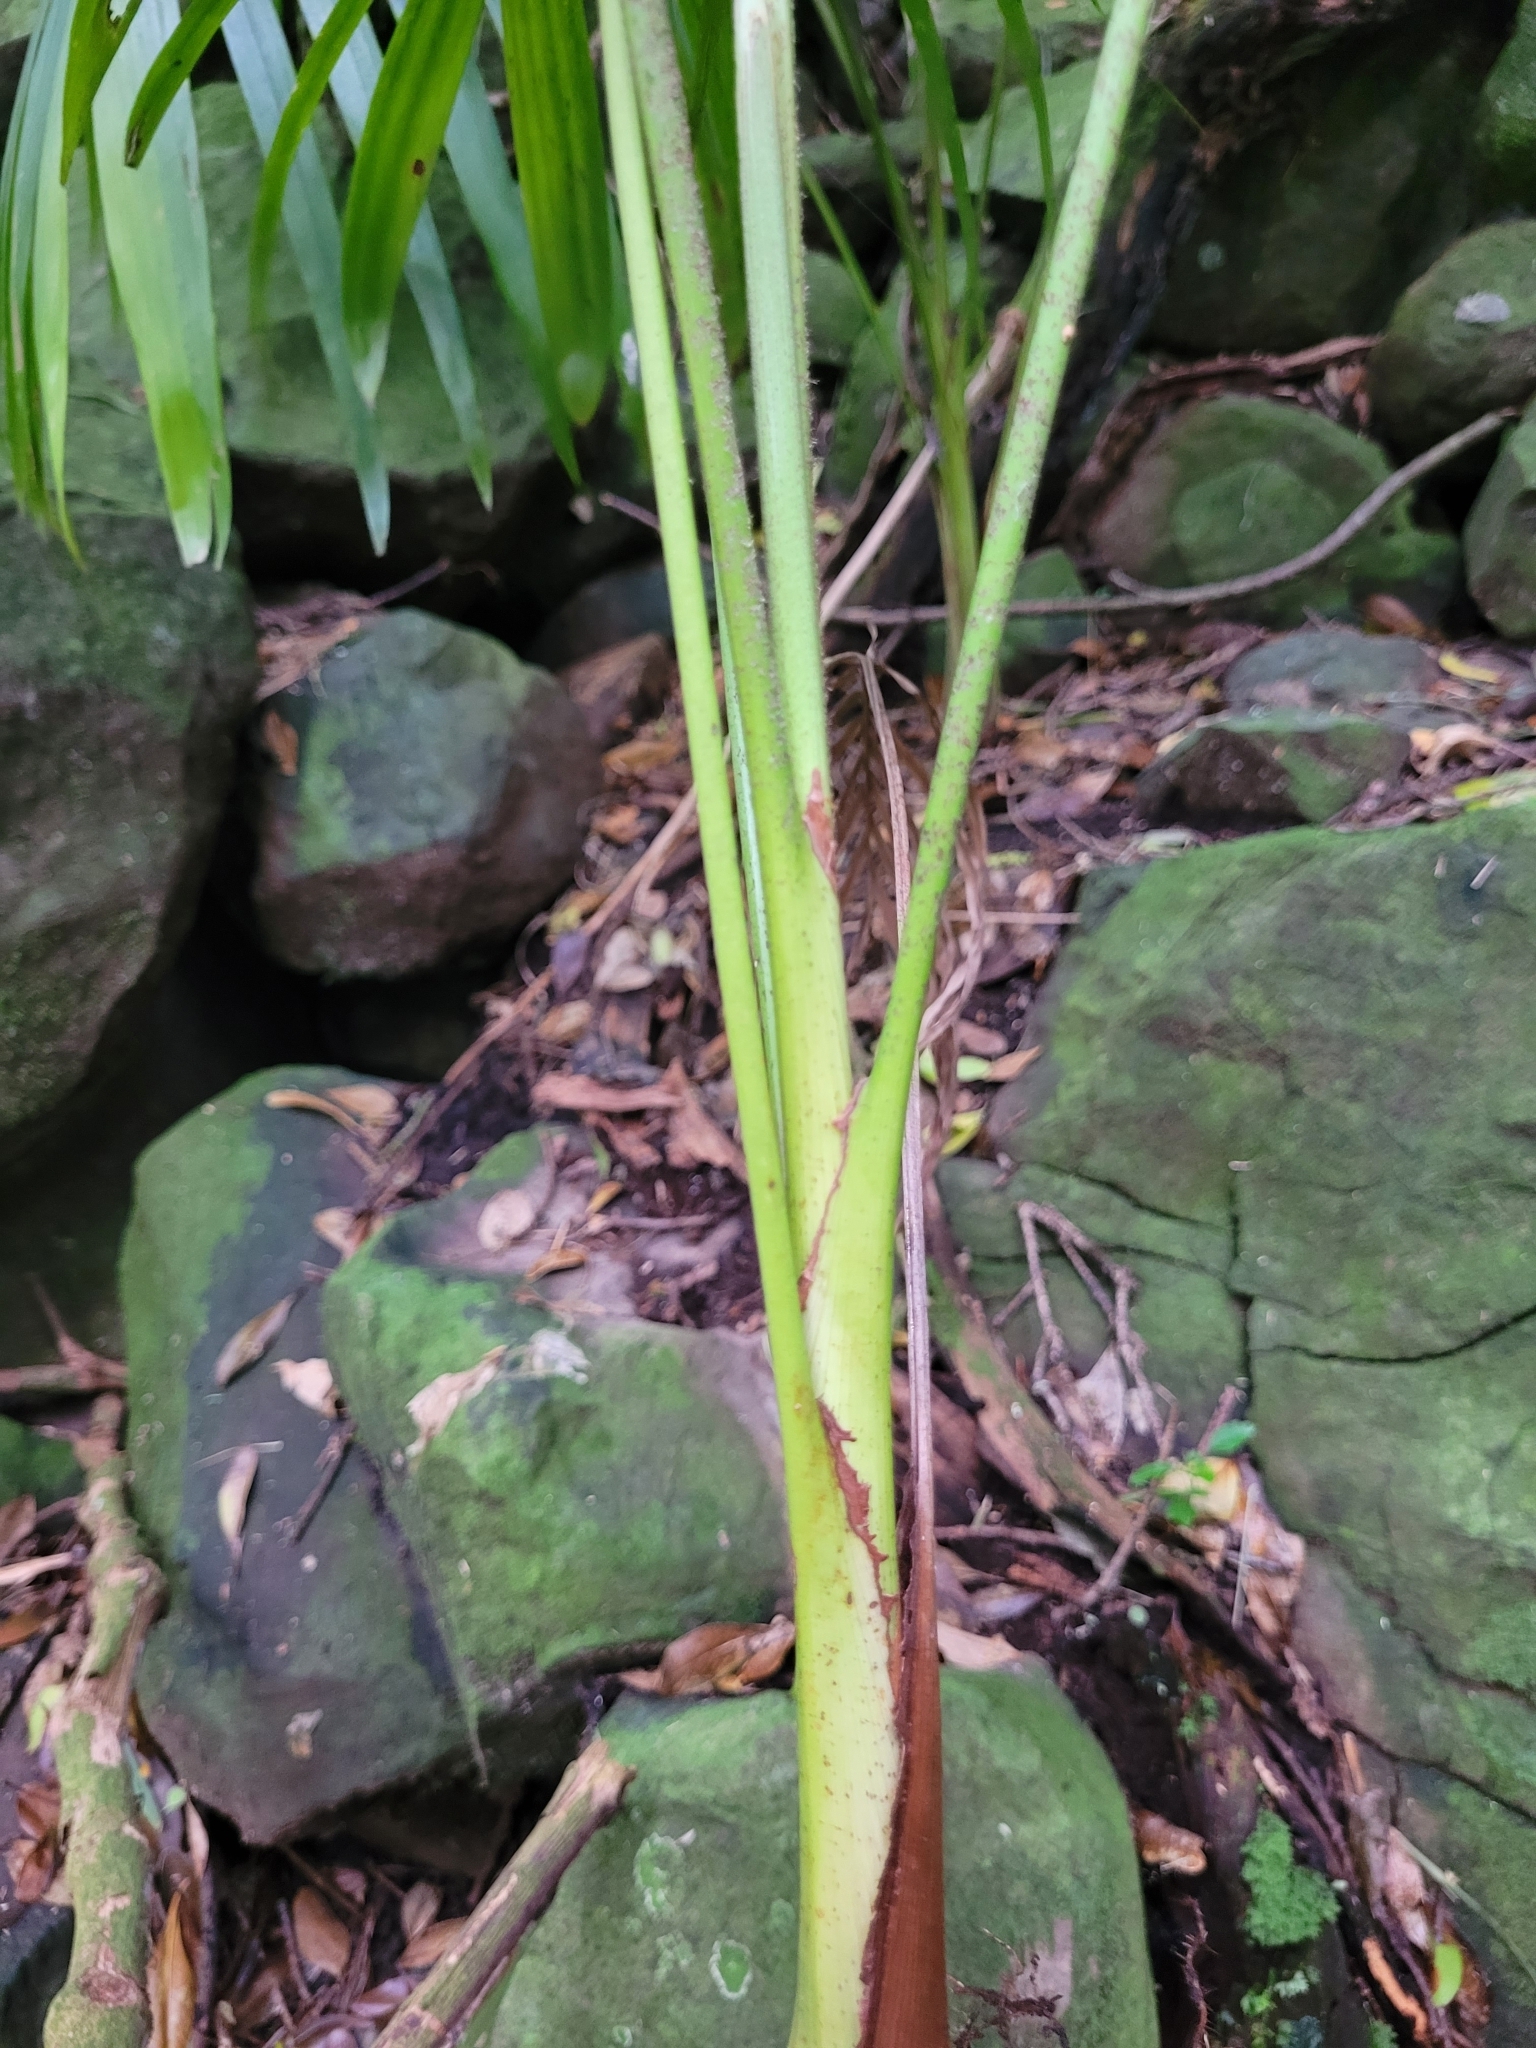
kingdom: Plantae
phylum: Tracheophyta
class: Liliopsida
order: Arecales
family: Arecaceae
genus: Archontophoenix
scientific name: Archontophoenix cunninghamiana
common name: Piccabeen bangalow palm
